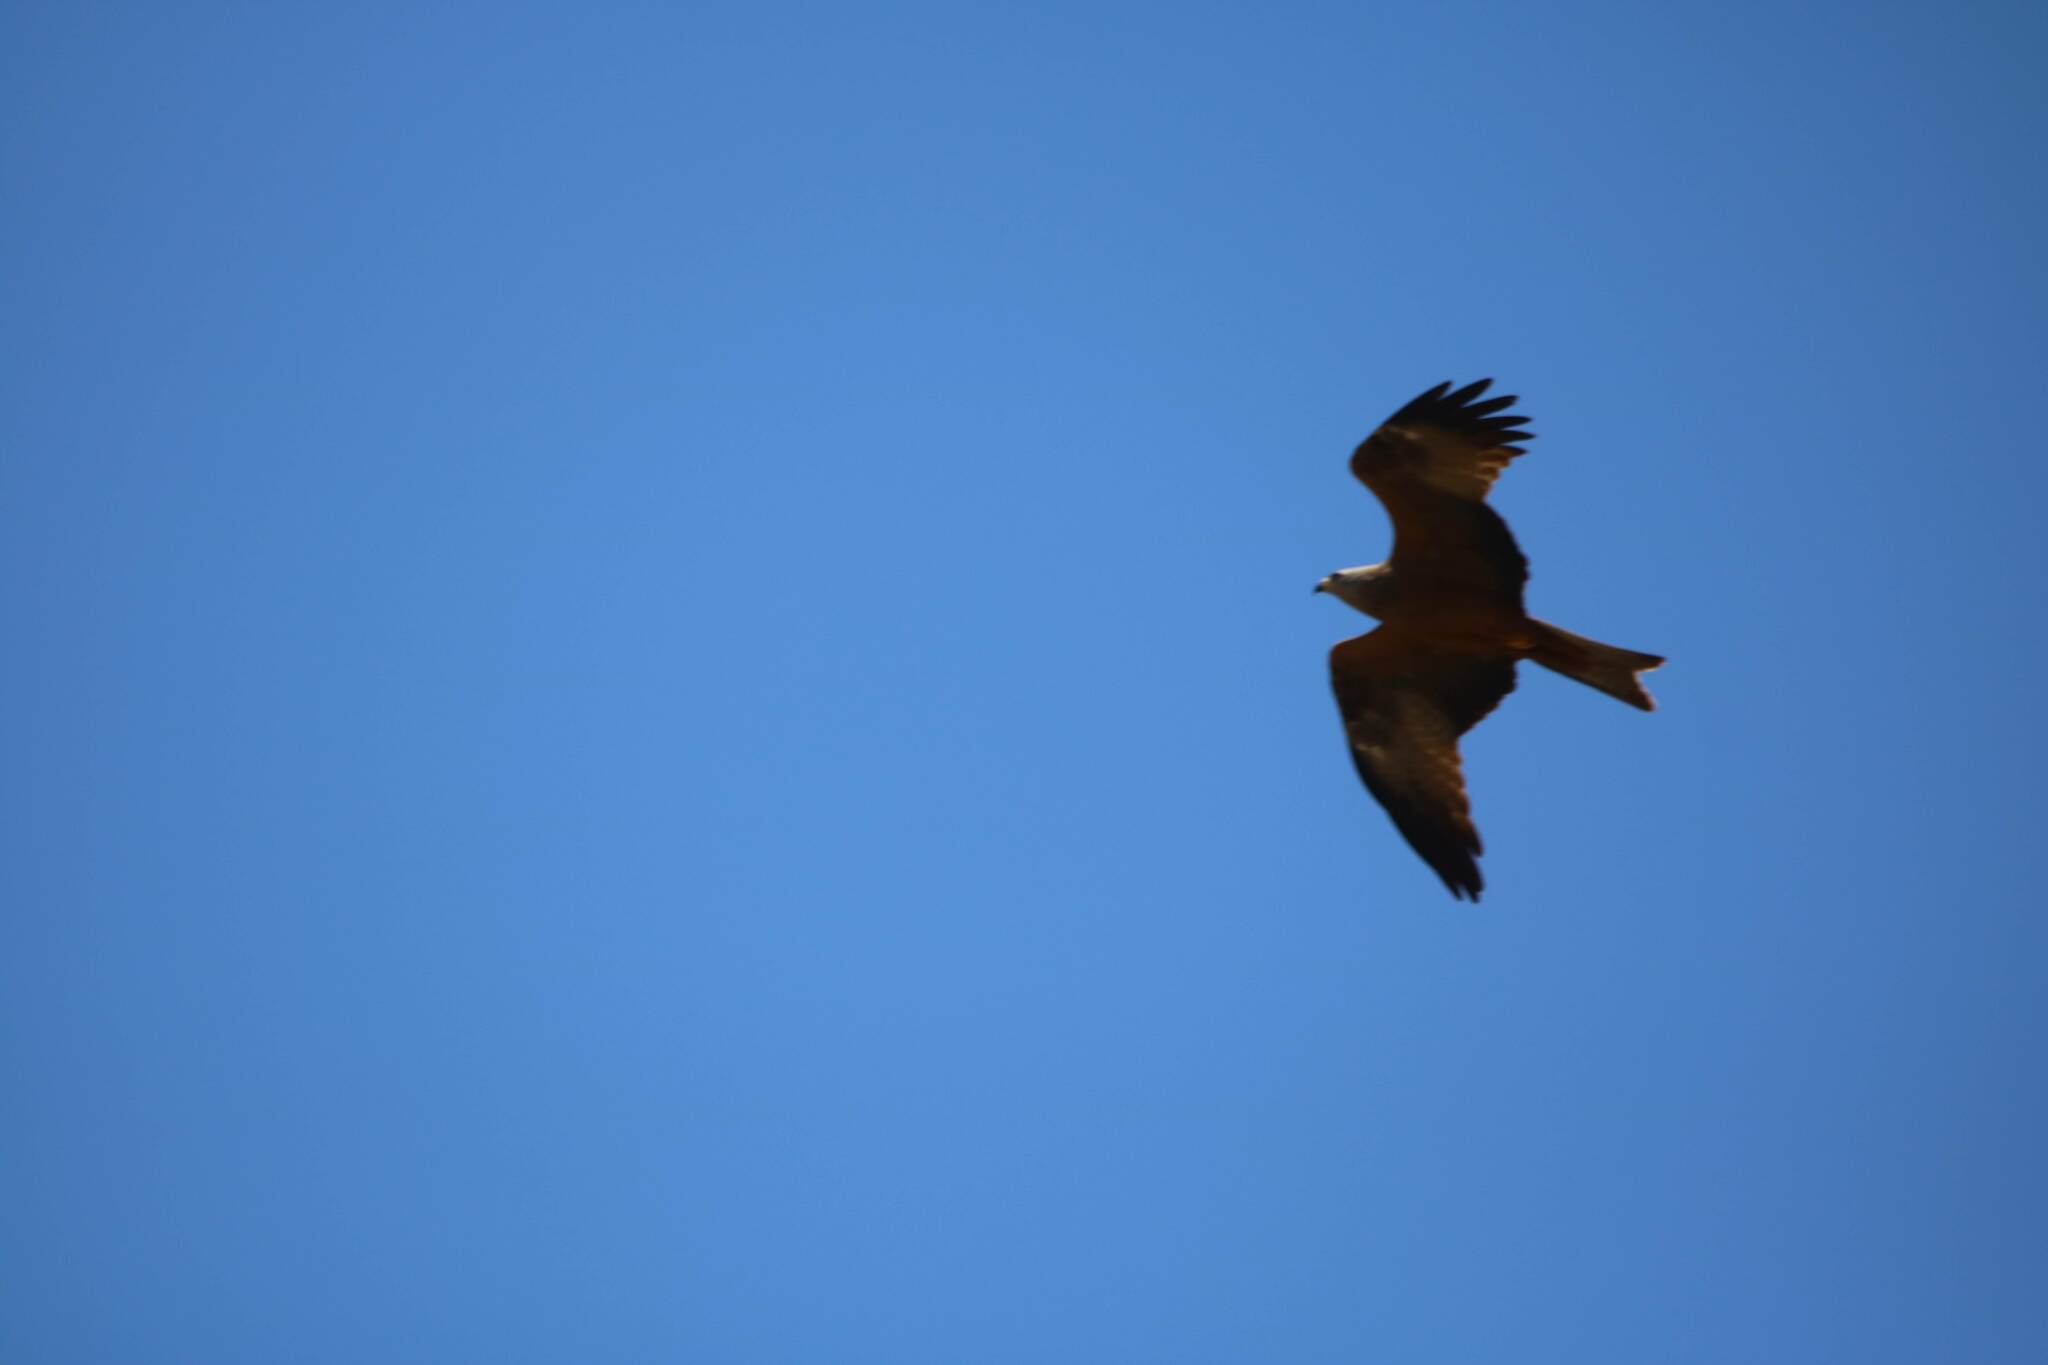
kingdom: Animalia
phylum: Chordata
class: Aves
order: Accipitriformes
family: Accipitridae
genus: Milvus
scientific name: Milvus milvus
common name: Red kite
